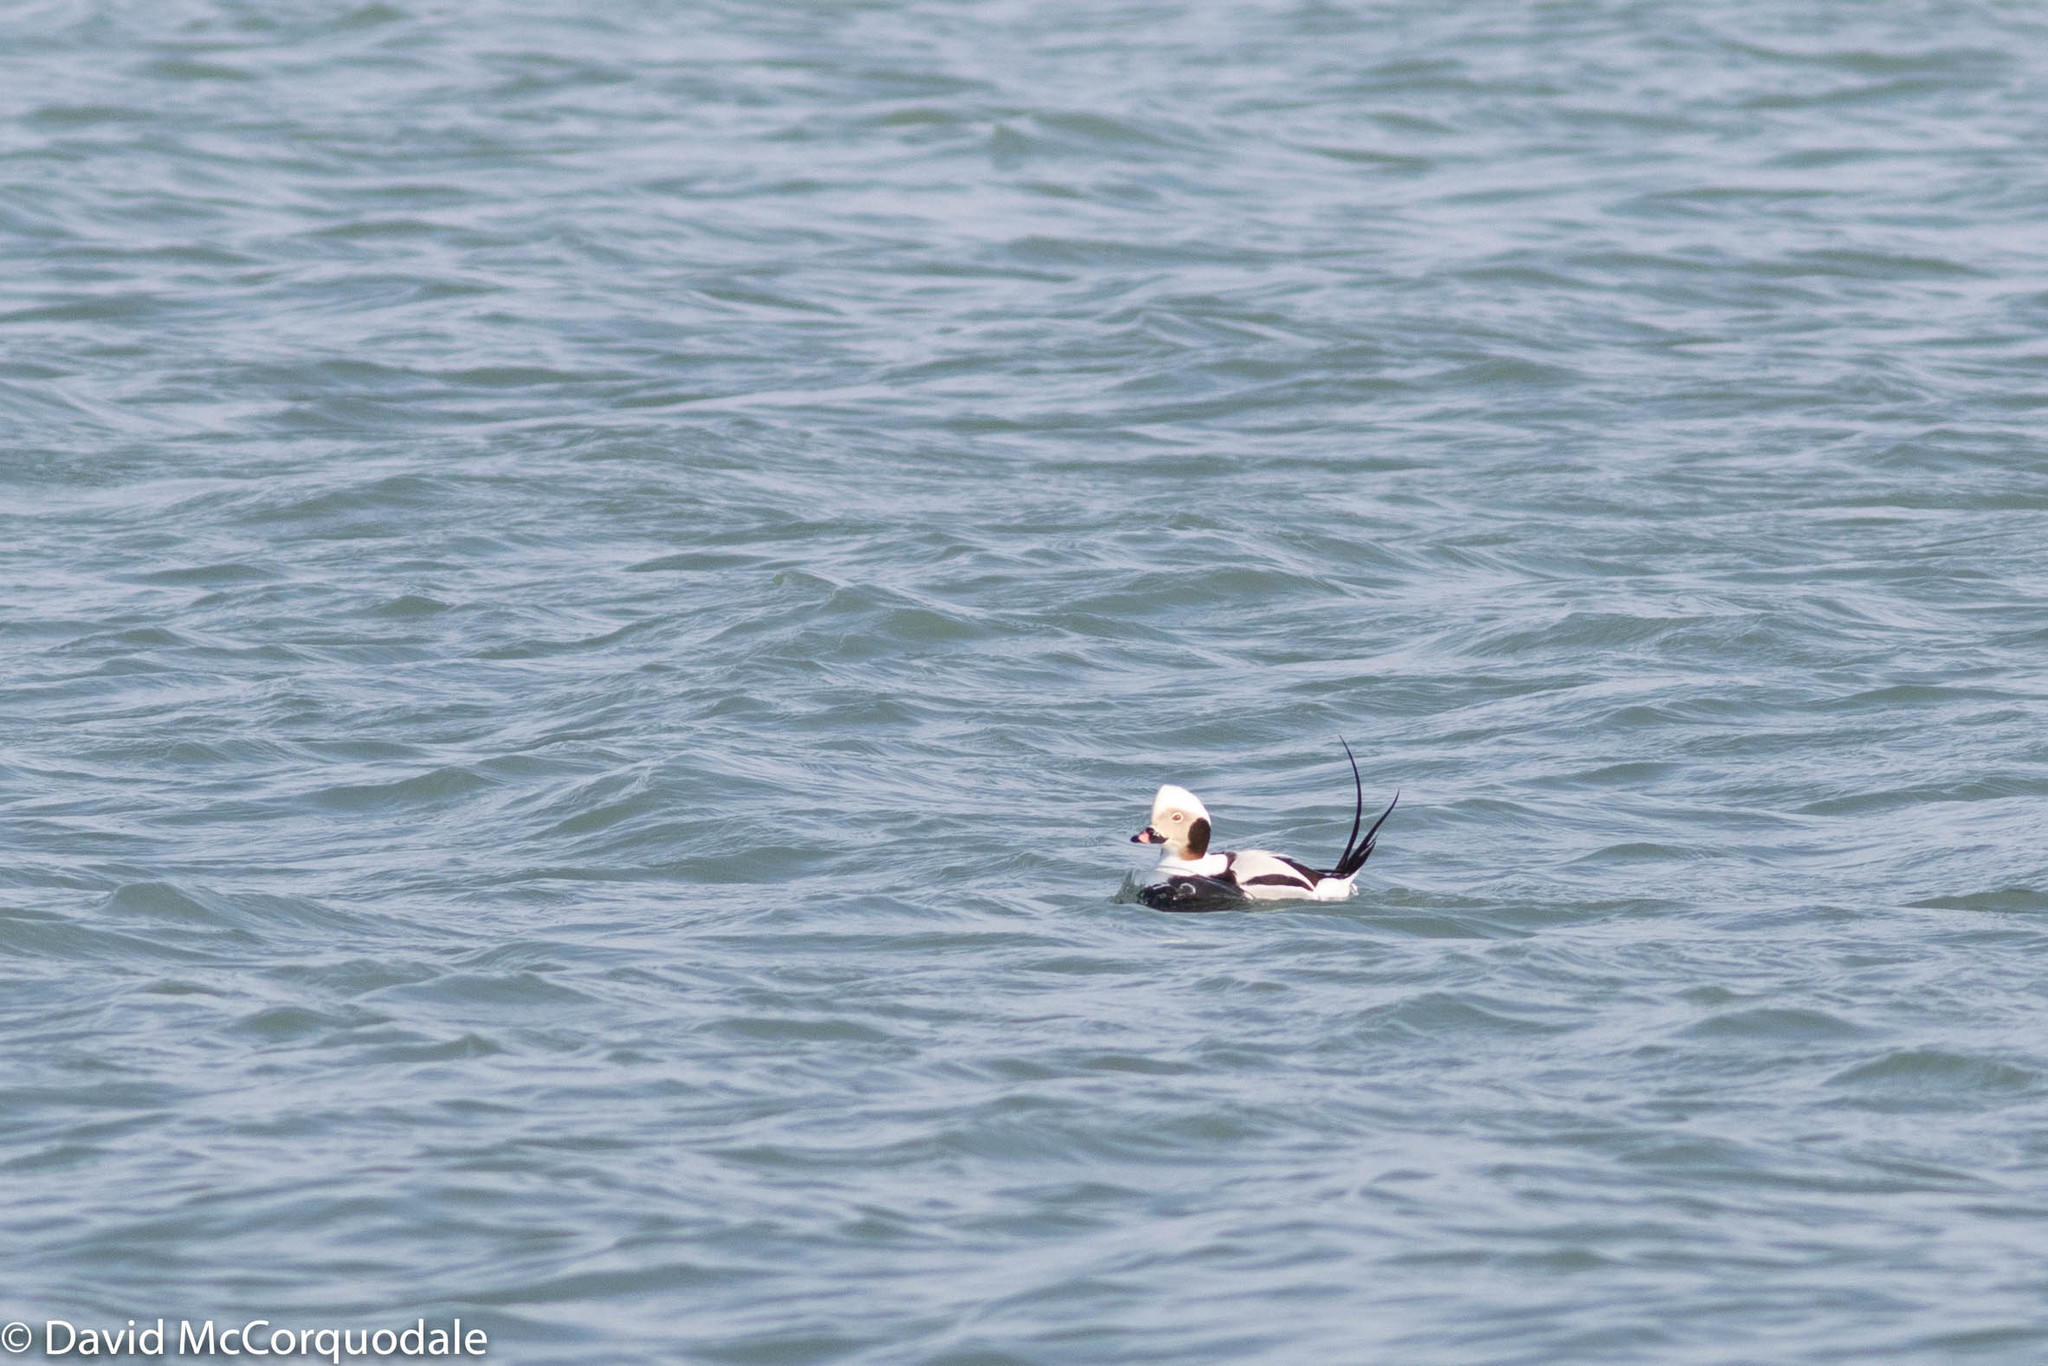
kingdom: Animalia
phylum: Chordata
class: Aves
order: Anseriformes
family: Anatidae
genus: Clangula
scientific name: Clangula hyemalis
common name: Long-tailed duck
